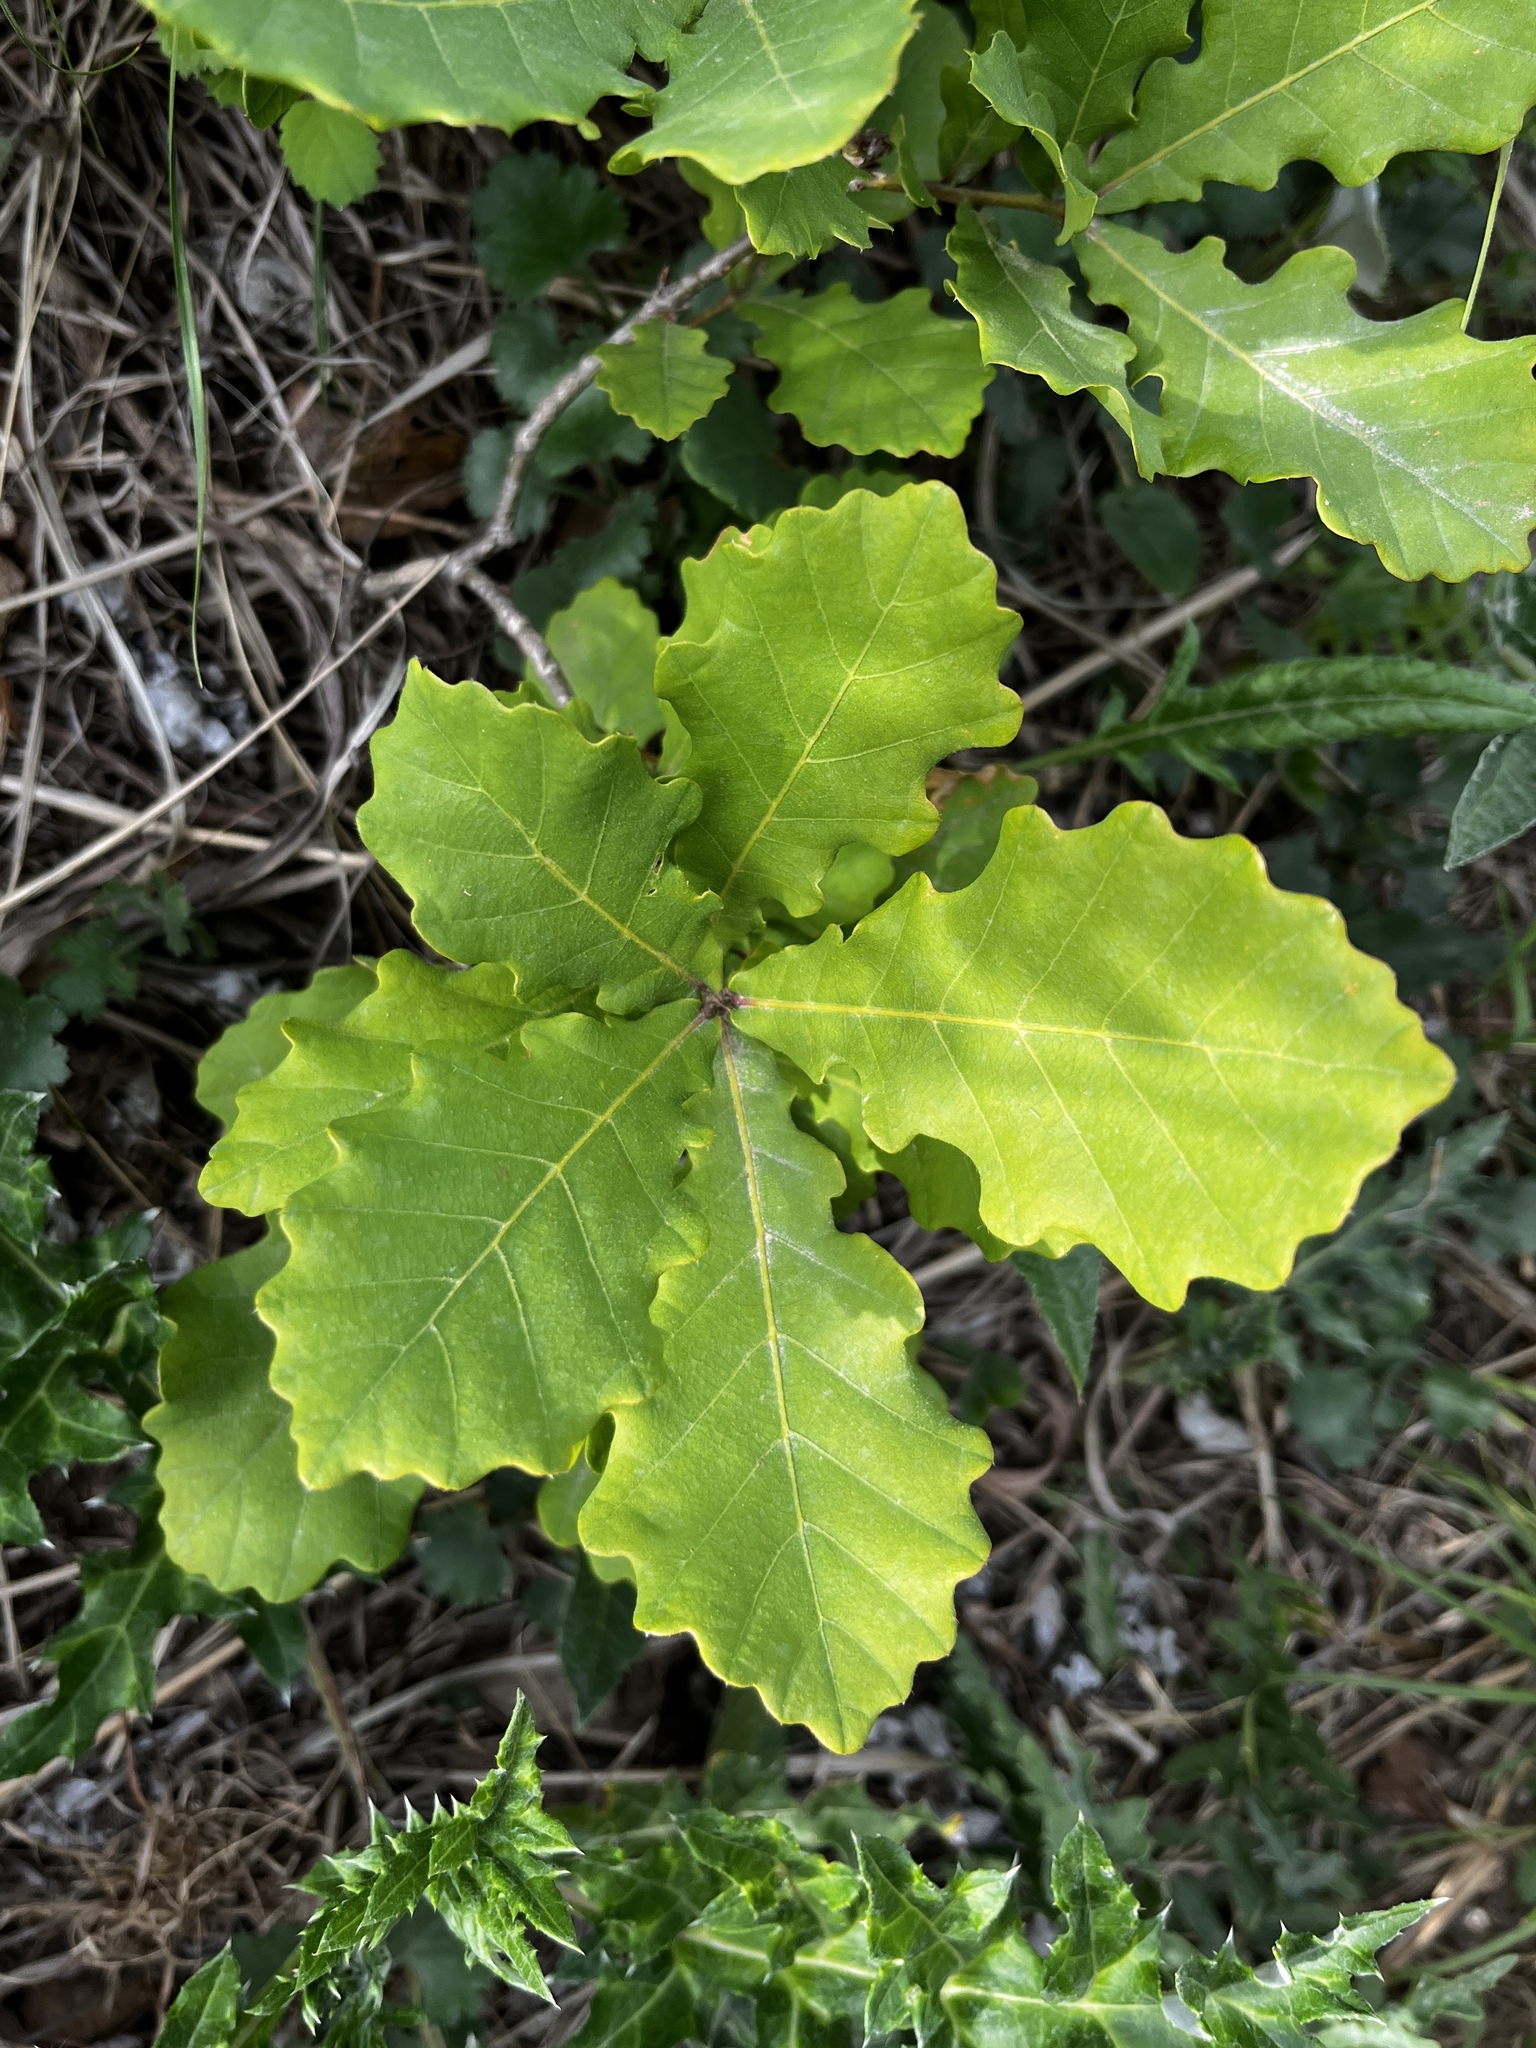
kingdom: Plantae
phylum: Tracheophyta
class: Magnoliopsida
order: Fagales
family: Fagaceae
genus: Quercus
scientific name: Quercus mongolica
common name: Mongolian oak
